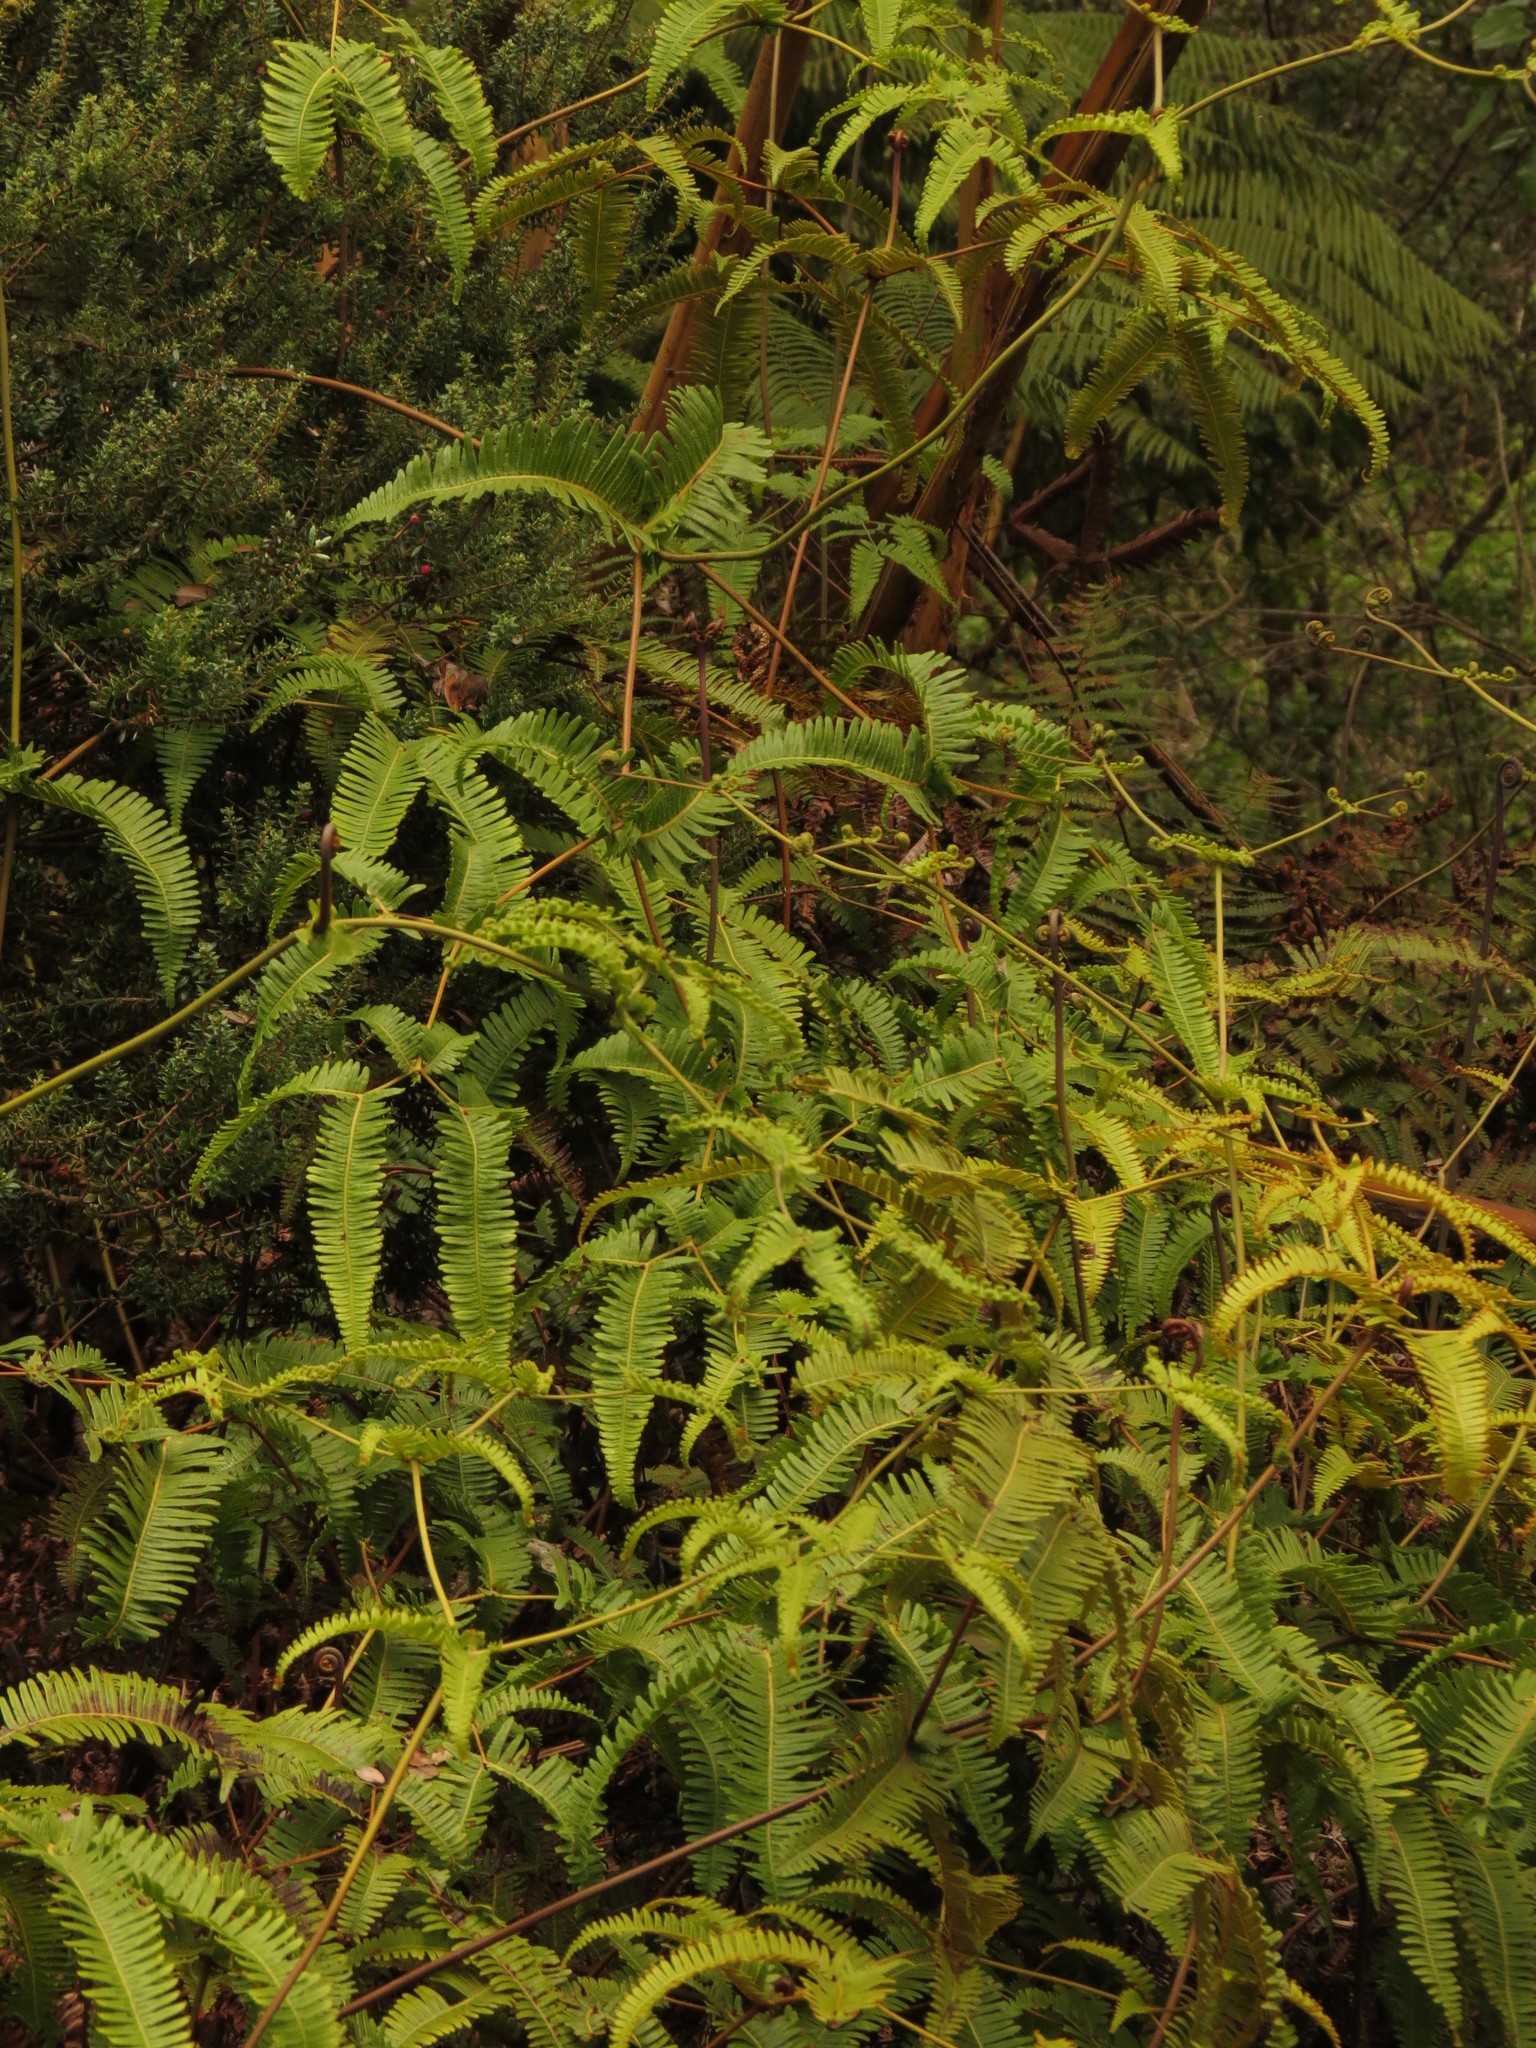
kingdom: Plantae
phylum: Tracheophyta
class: Polypodiopsida
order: Gleicheniales
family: Gleicheniaceae
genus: Dicranopteris
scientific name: Dicranopteris linearis
